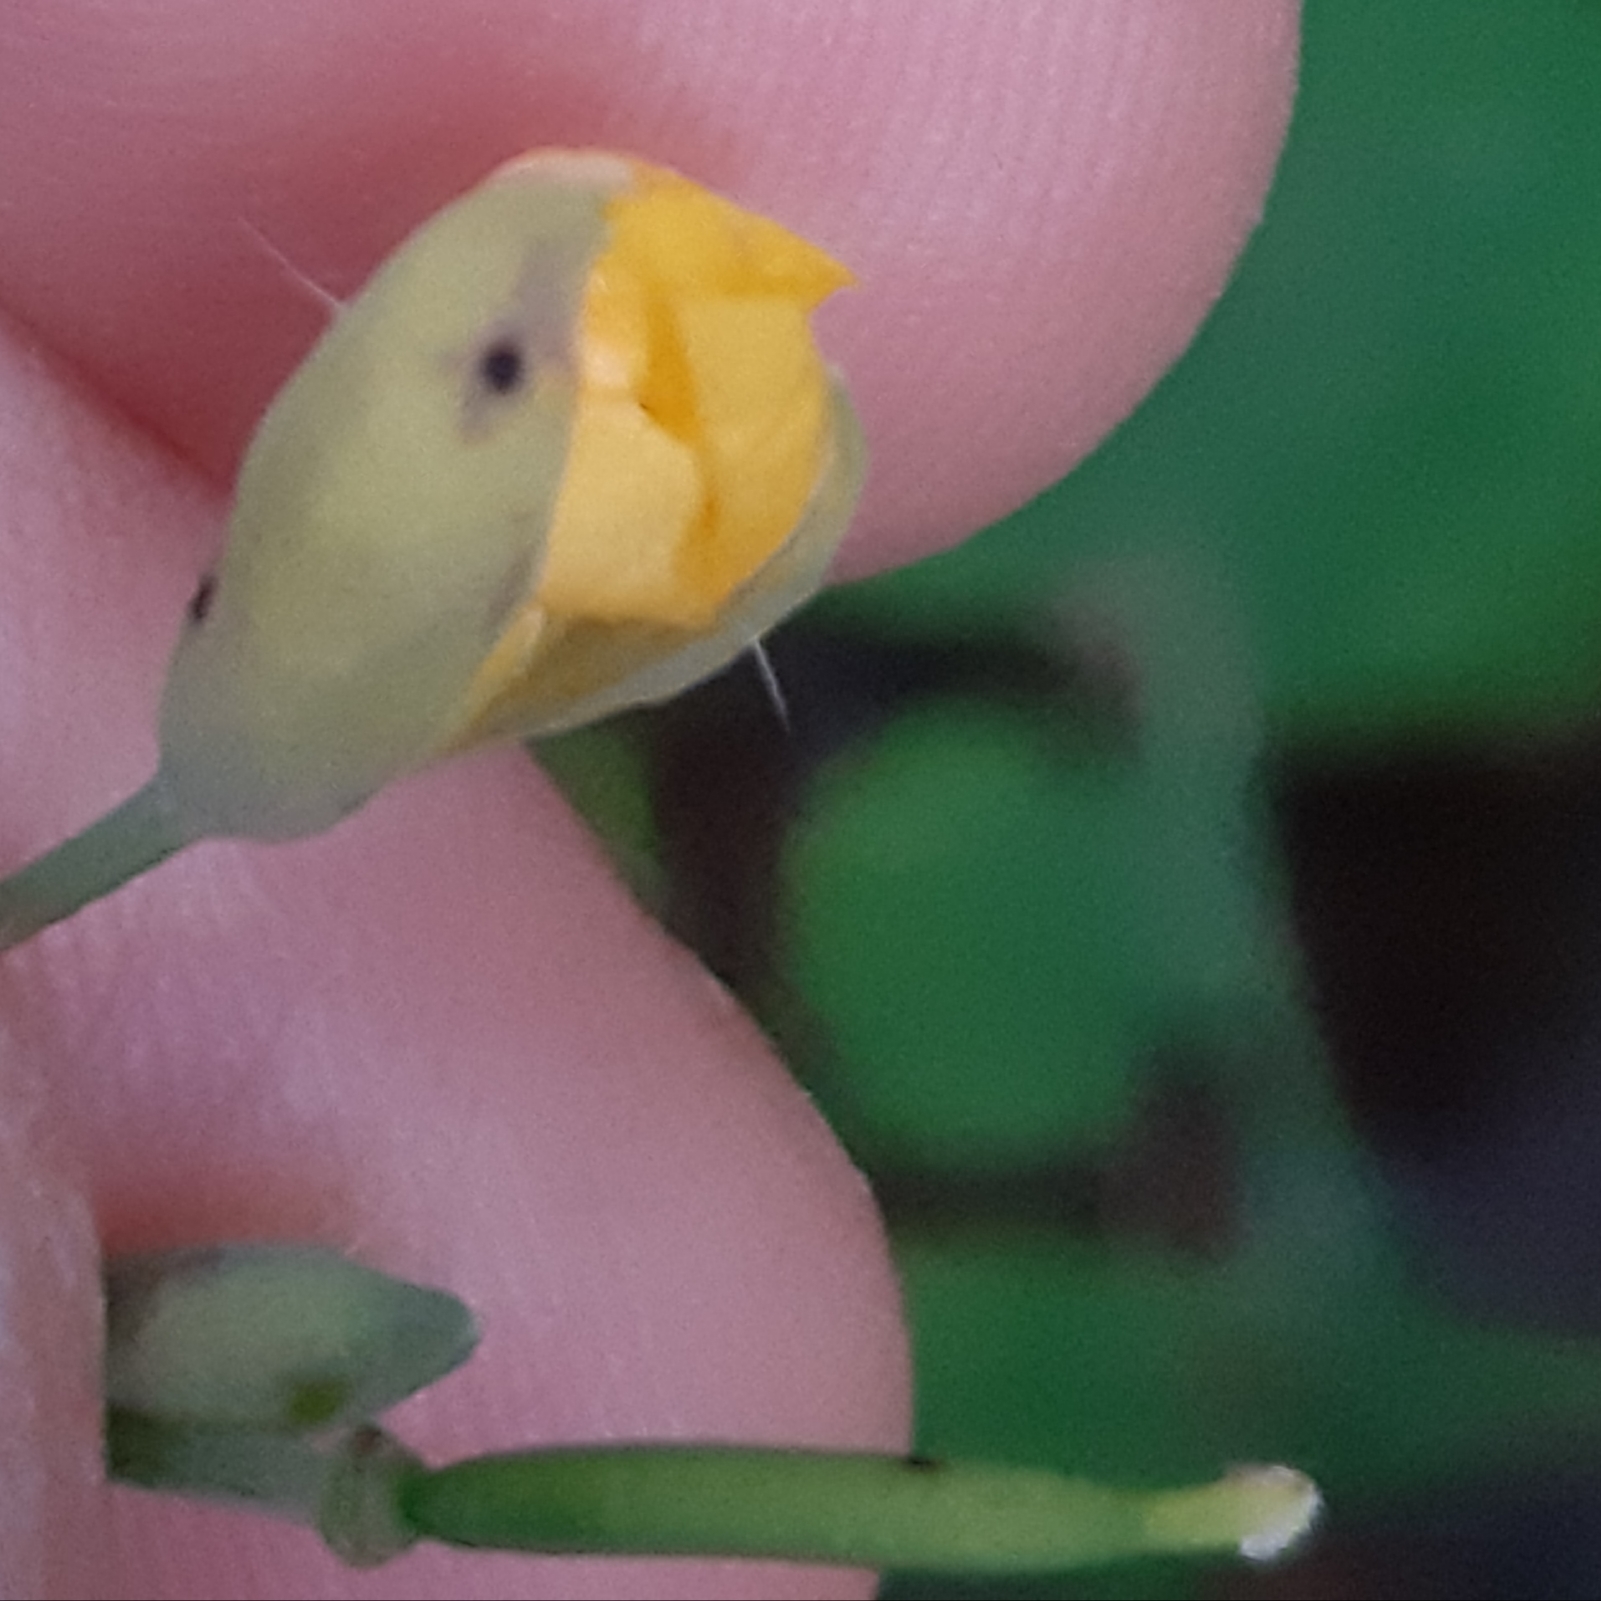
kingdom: Plantae
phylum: Tracheophyta
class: Magnoliopsida
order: Ranunculales
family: Papaveraceae
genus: Chelidonium
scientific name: Chelidonium majus
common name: Greater celandine
